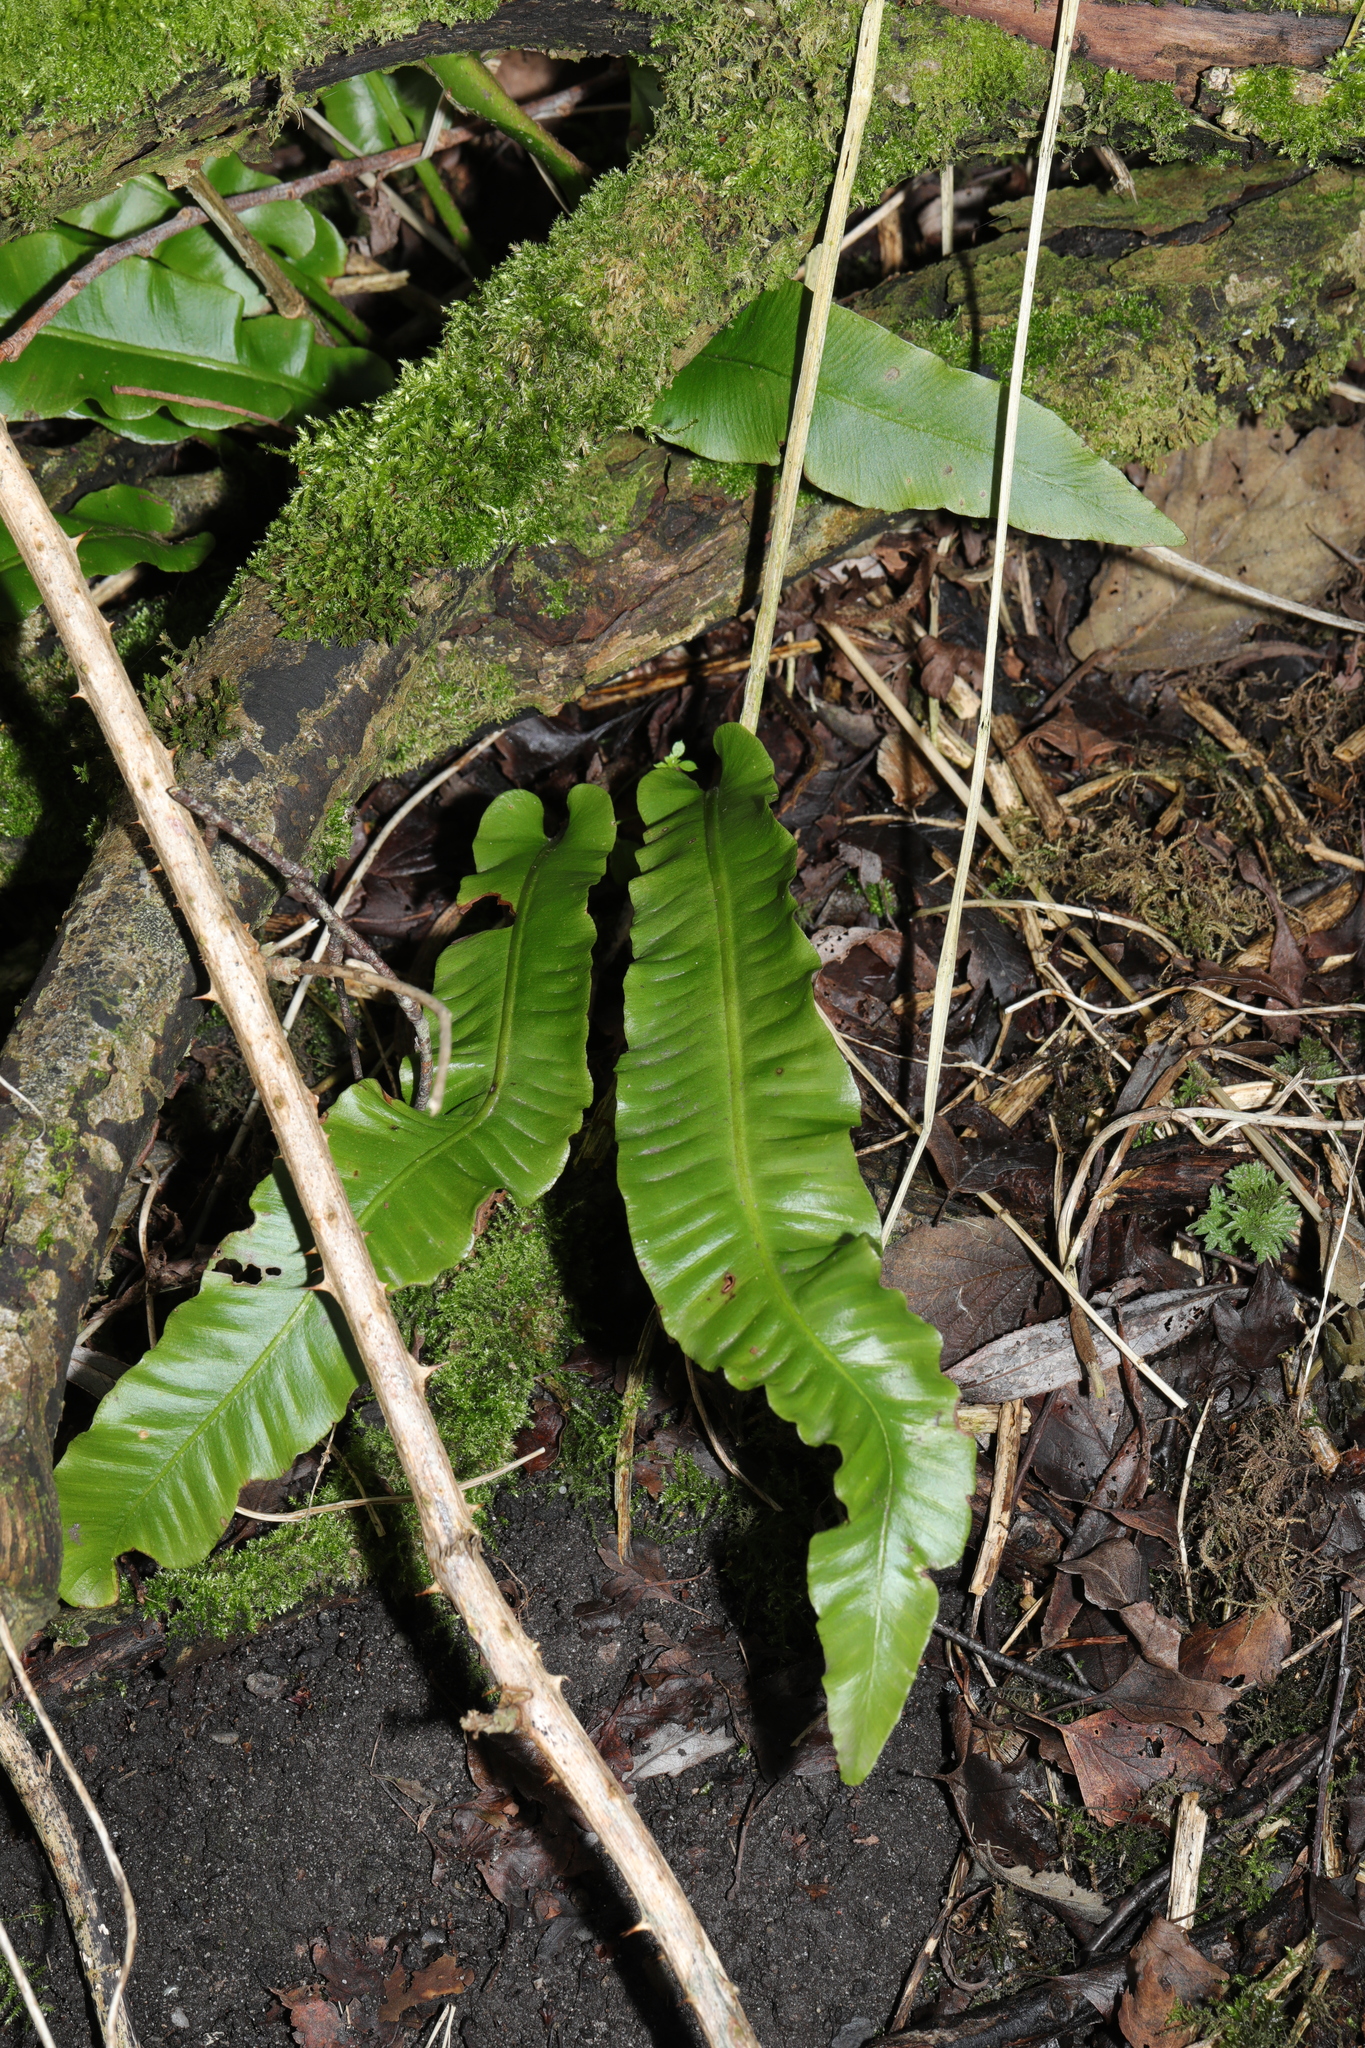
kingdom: Plantae
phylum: Tracheophyta
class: Polypodiopsida
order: Polypodiales
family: Aspleniaceae
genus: Asplenium
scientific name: Asplenium scolopendrium
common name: Hart's-tongue fern
